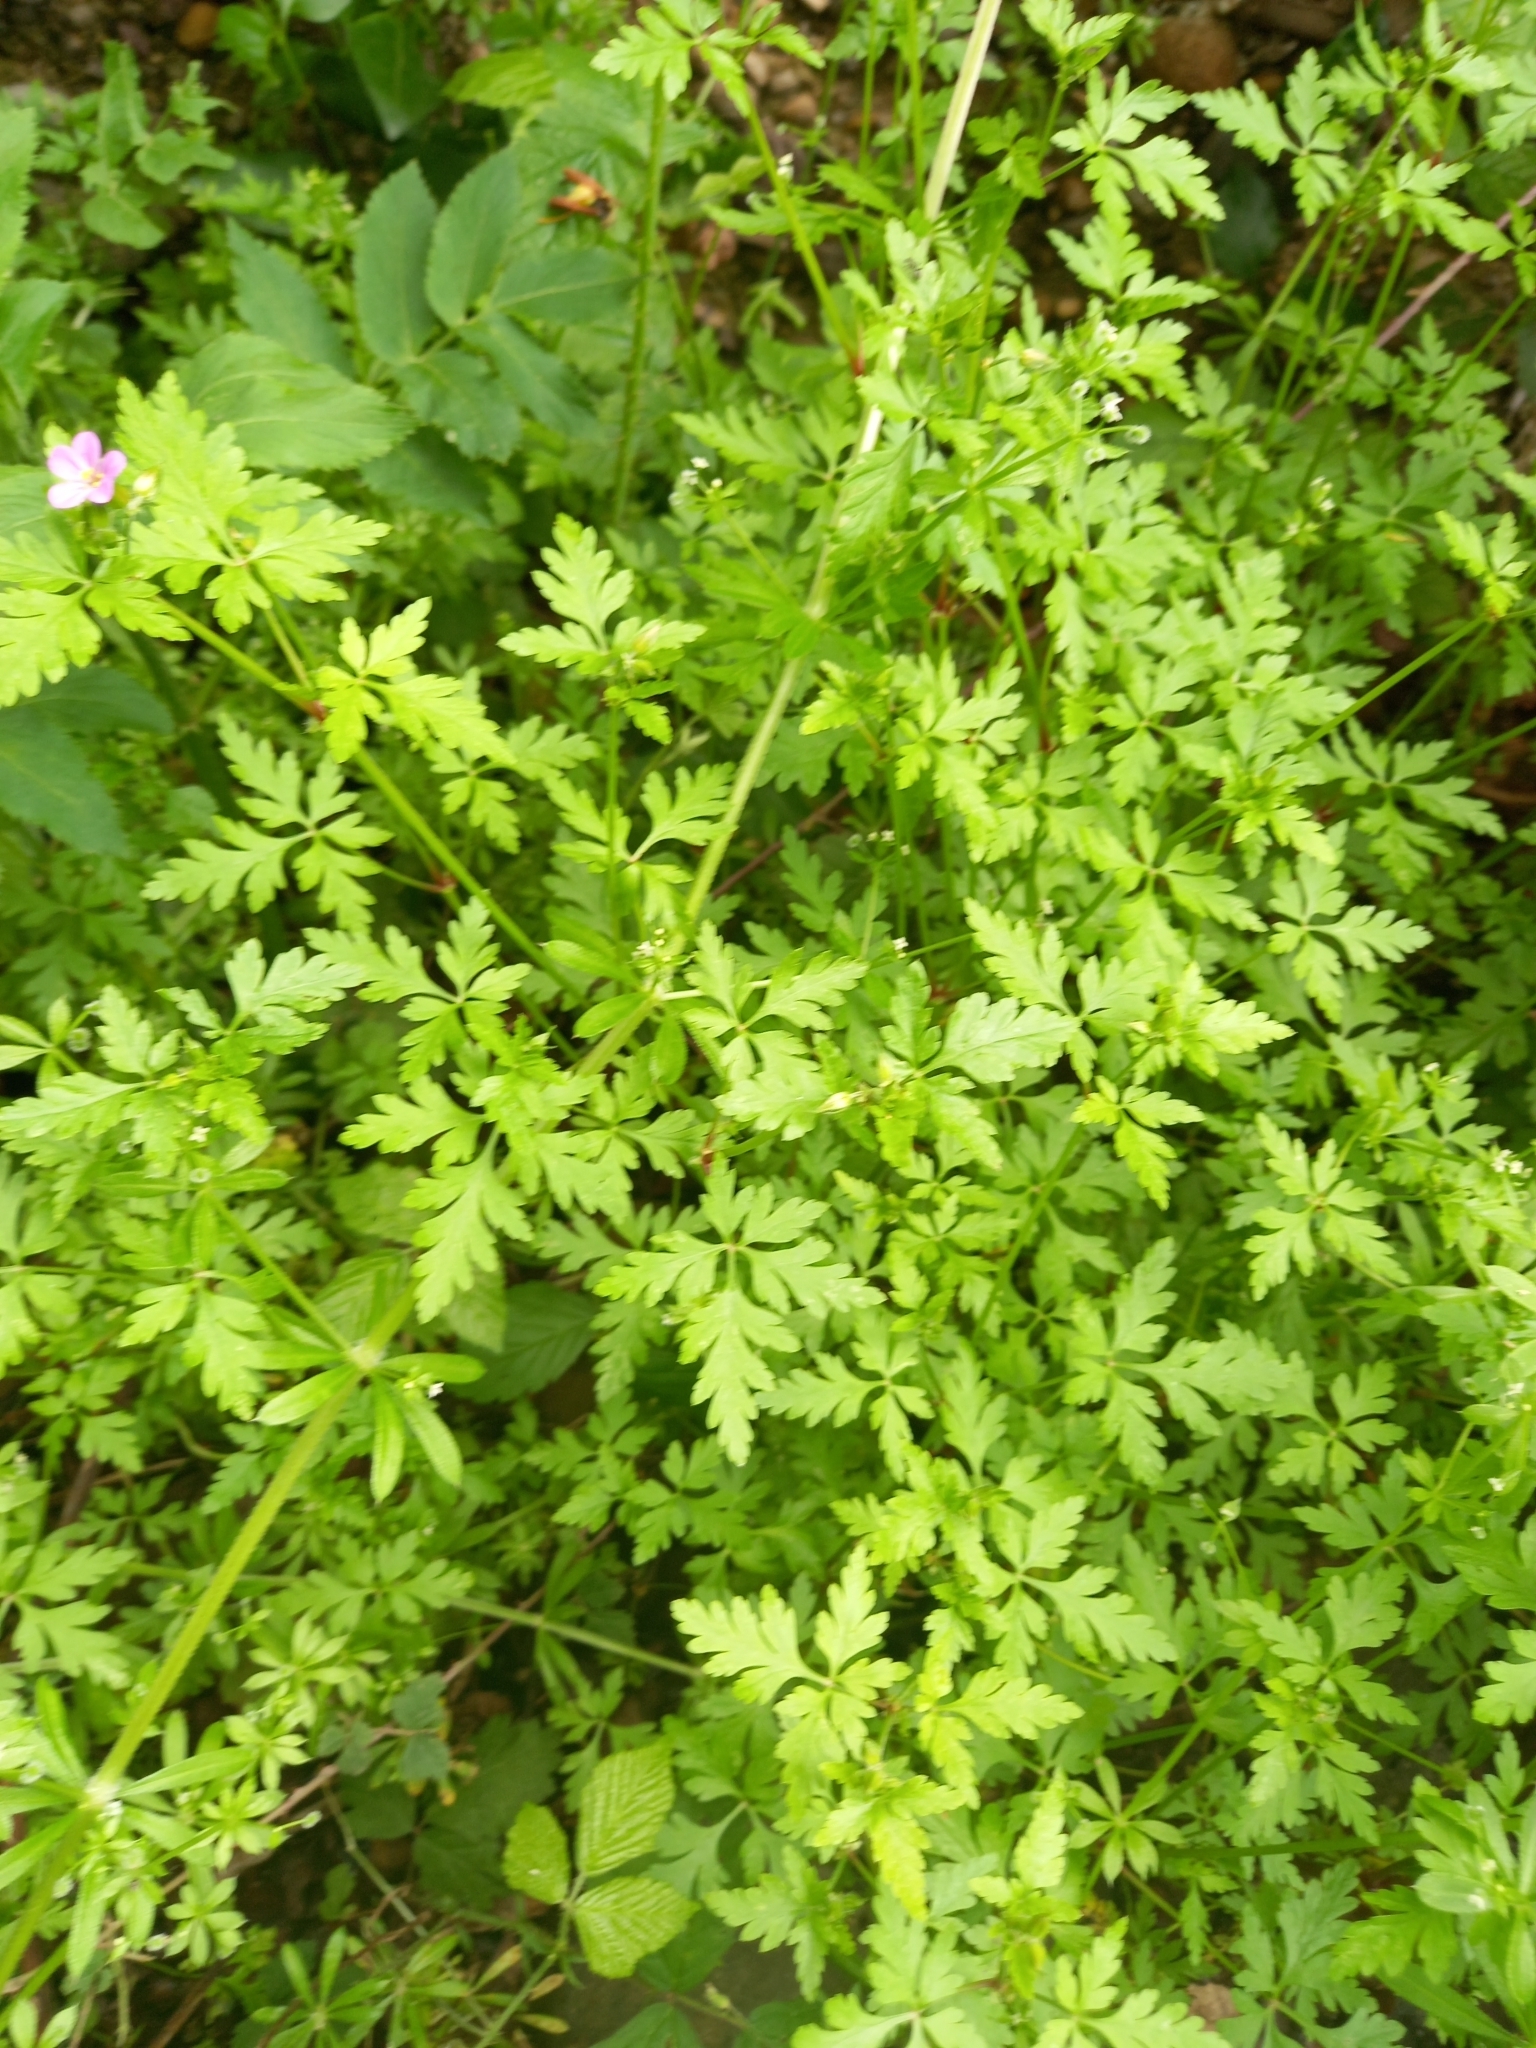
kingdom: Plantae
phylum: Tracheophyta
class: Magnoliopsida
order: Geraniales
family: Geraniaceae
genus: Geranium
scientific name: Geranium purpureum
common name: Little-robin
